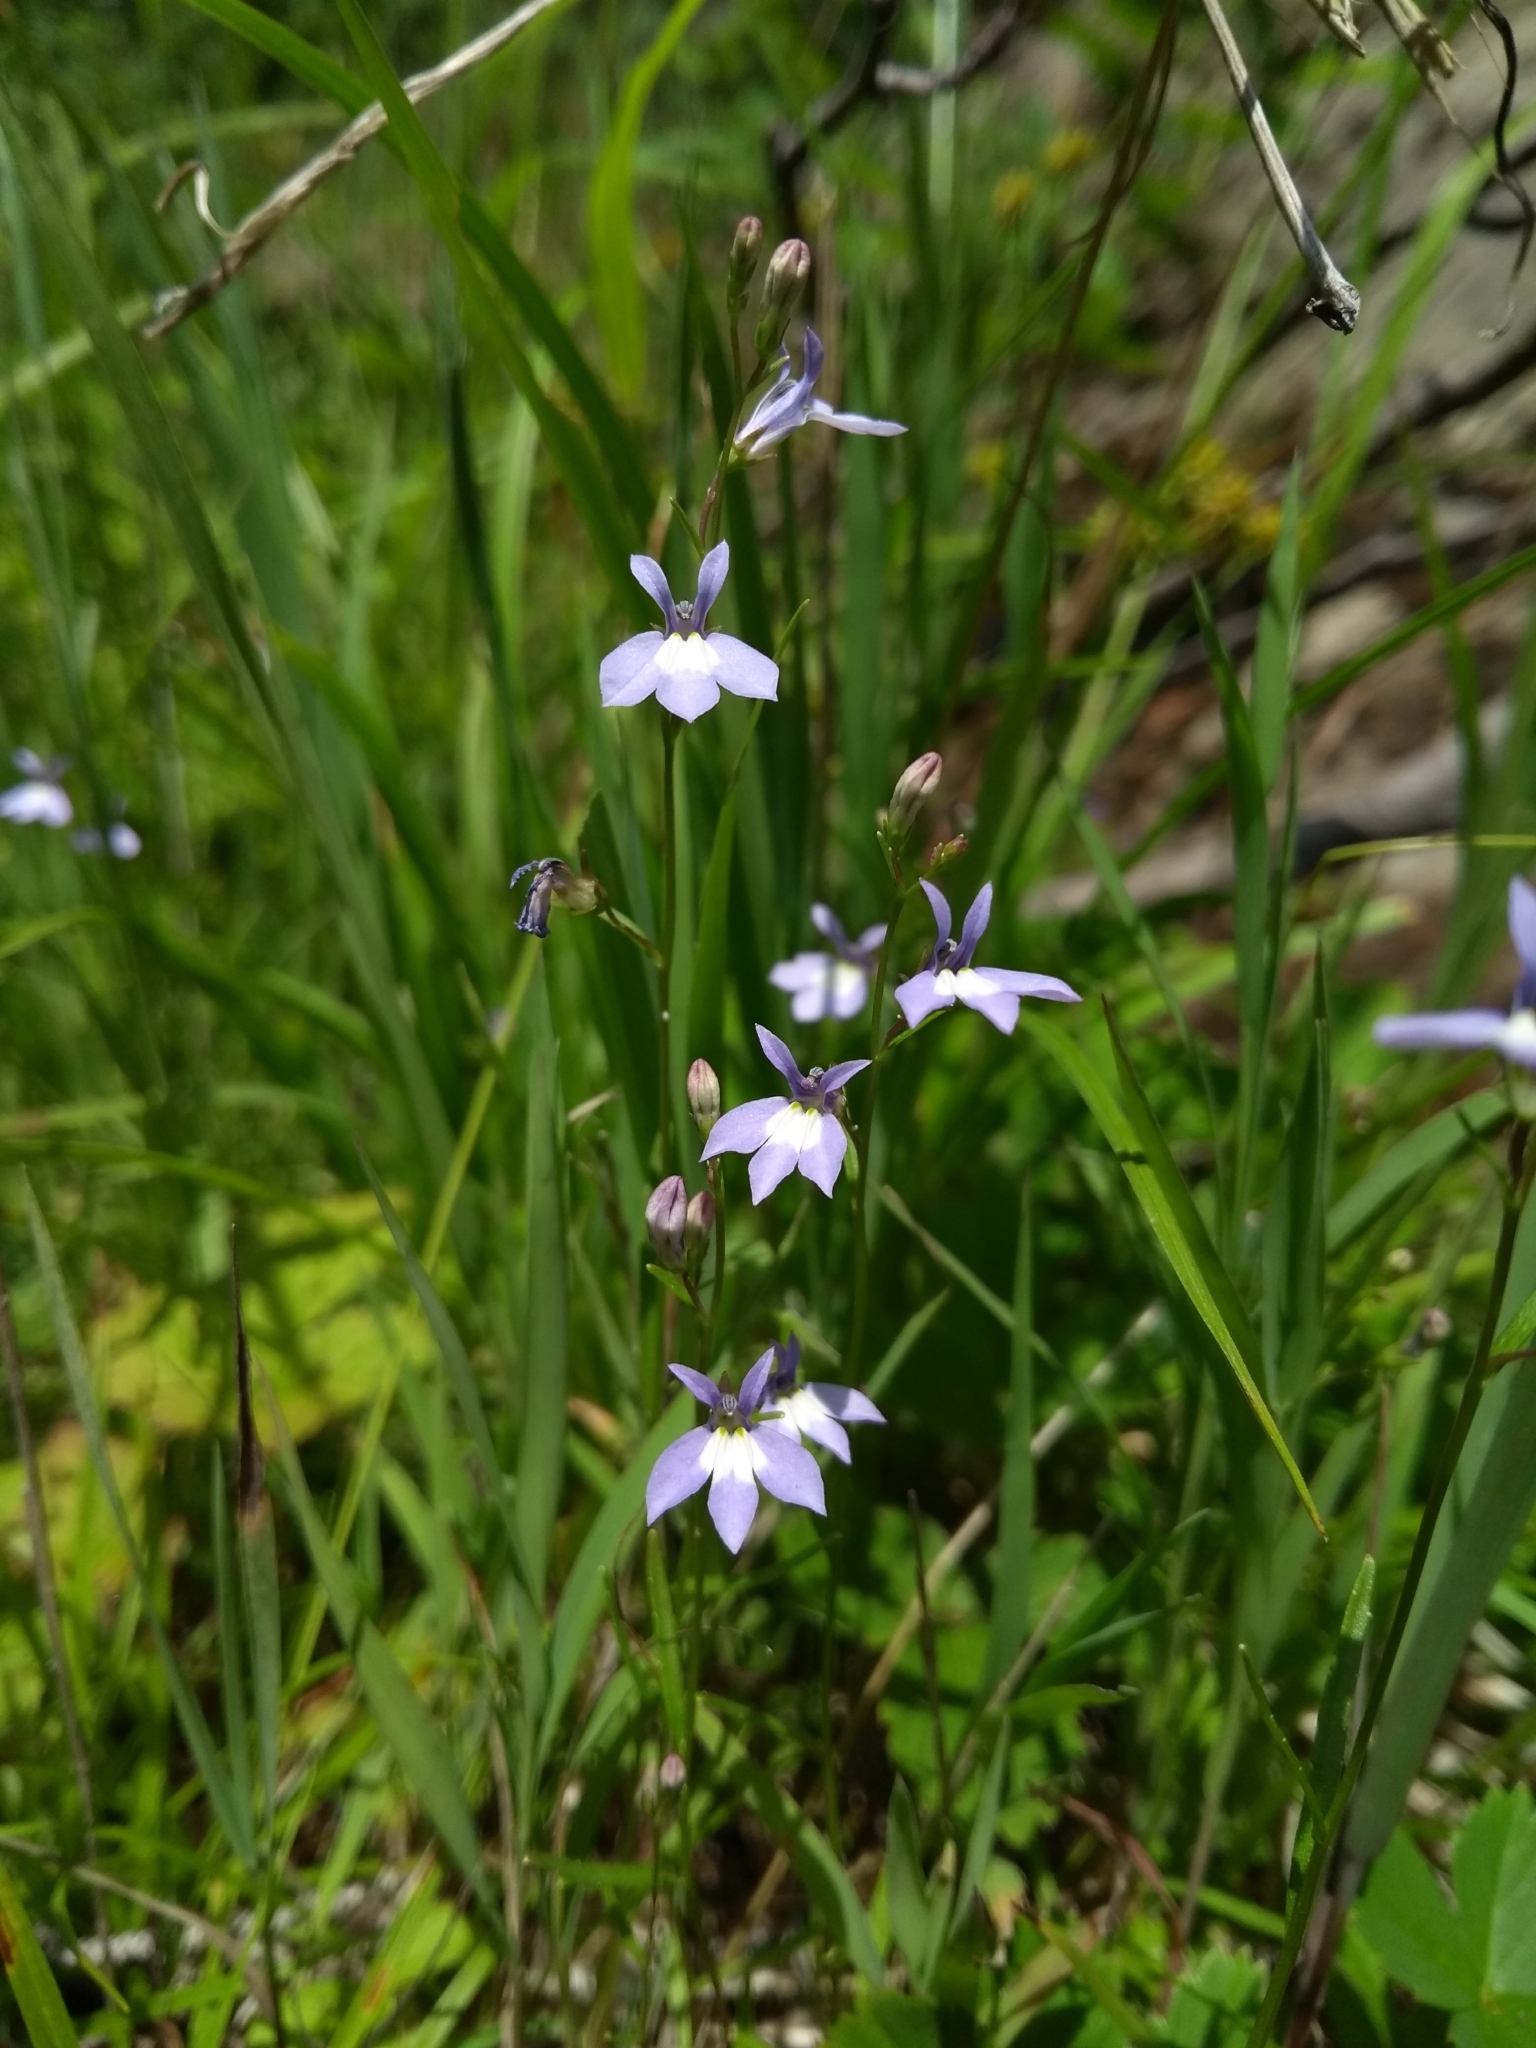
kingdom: Plantae
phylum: Tracheophyta
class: Magnoliopsida
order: Asterales
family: Campanulaceae
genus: Lobelia
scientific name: Lobelia kalmii
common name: Kalm's lobelia
